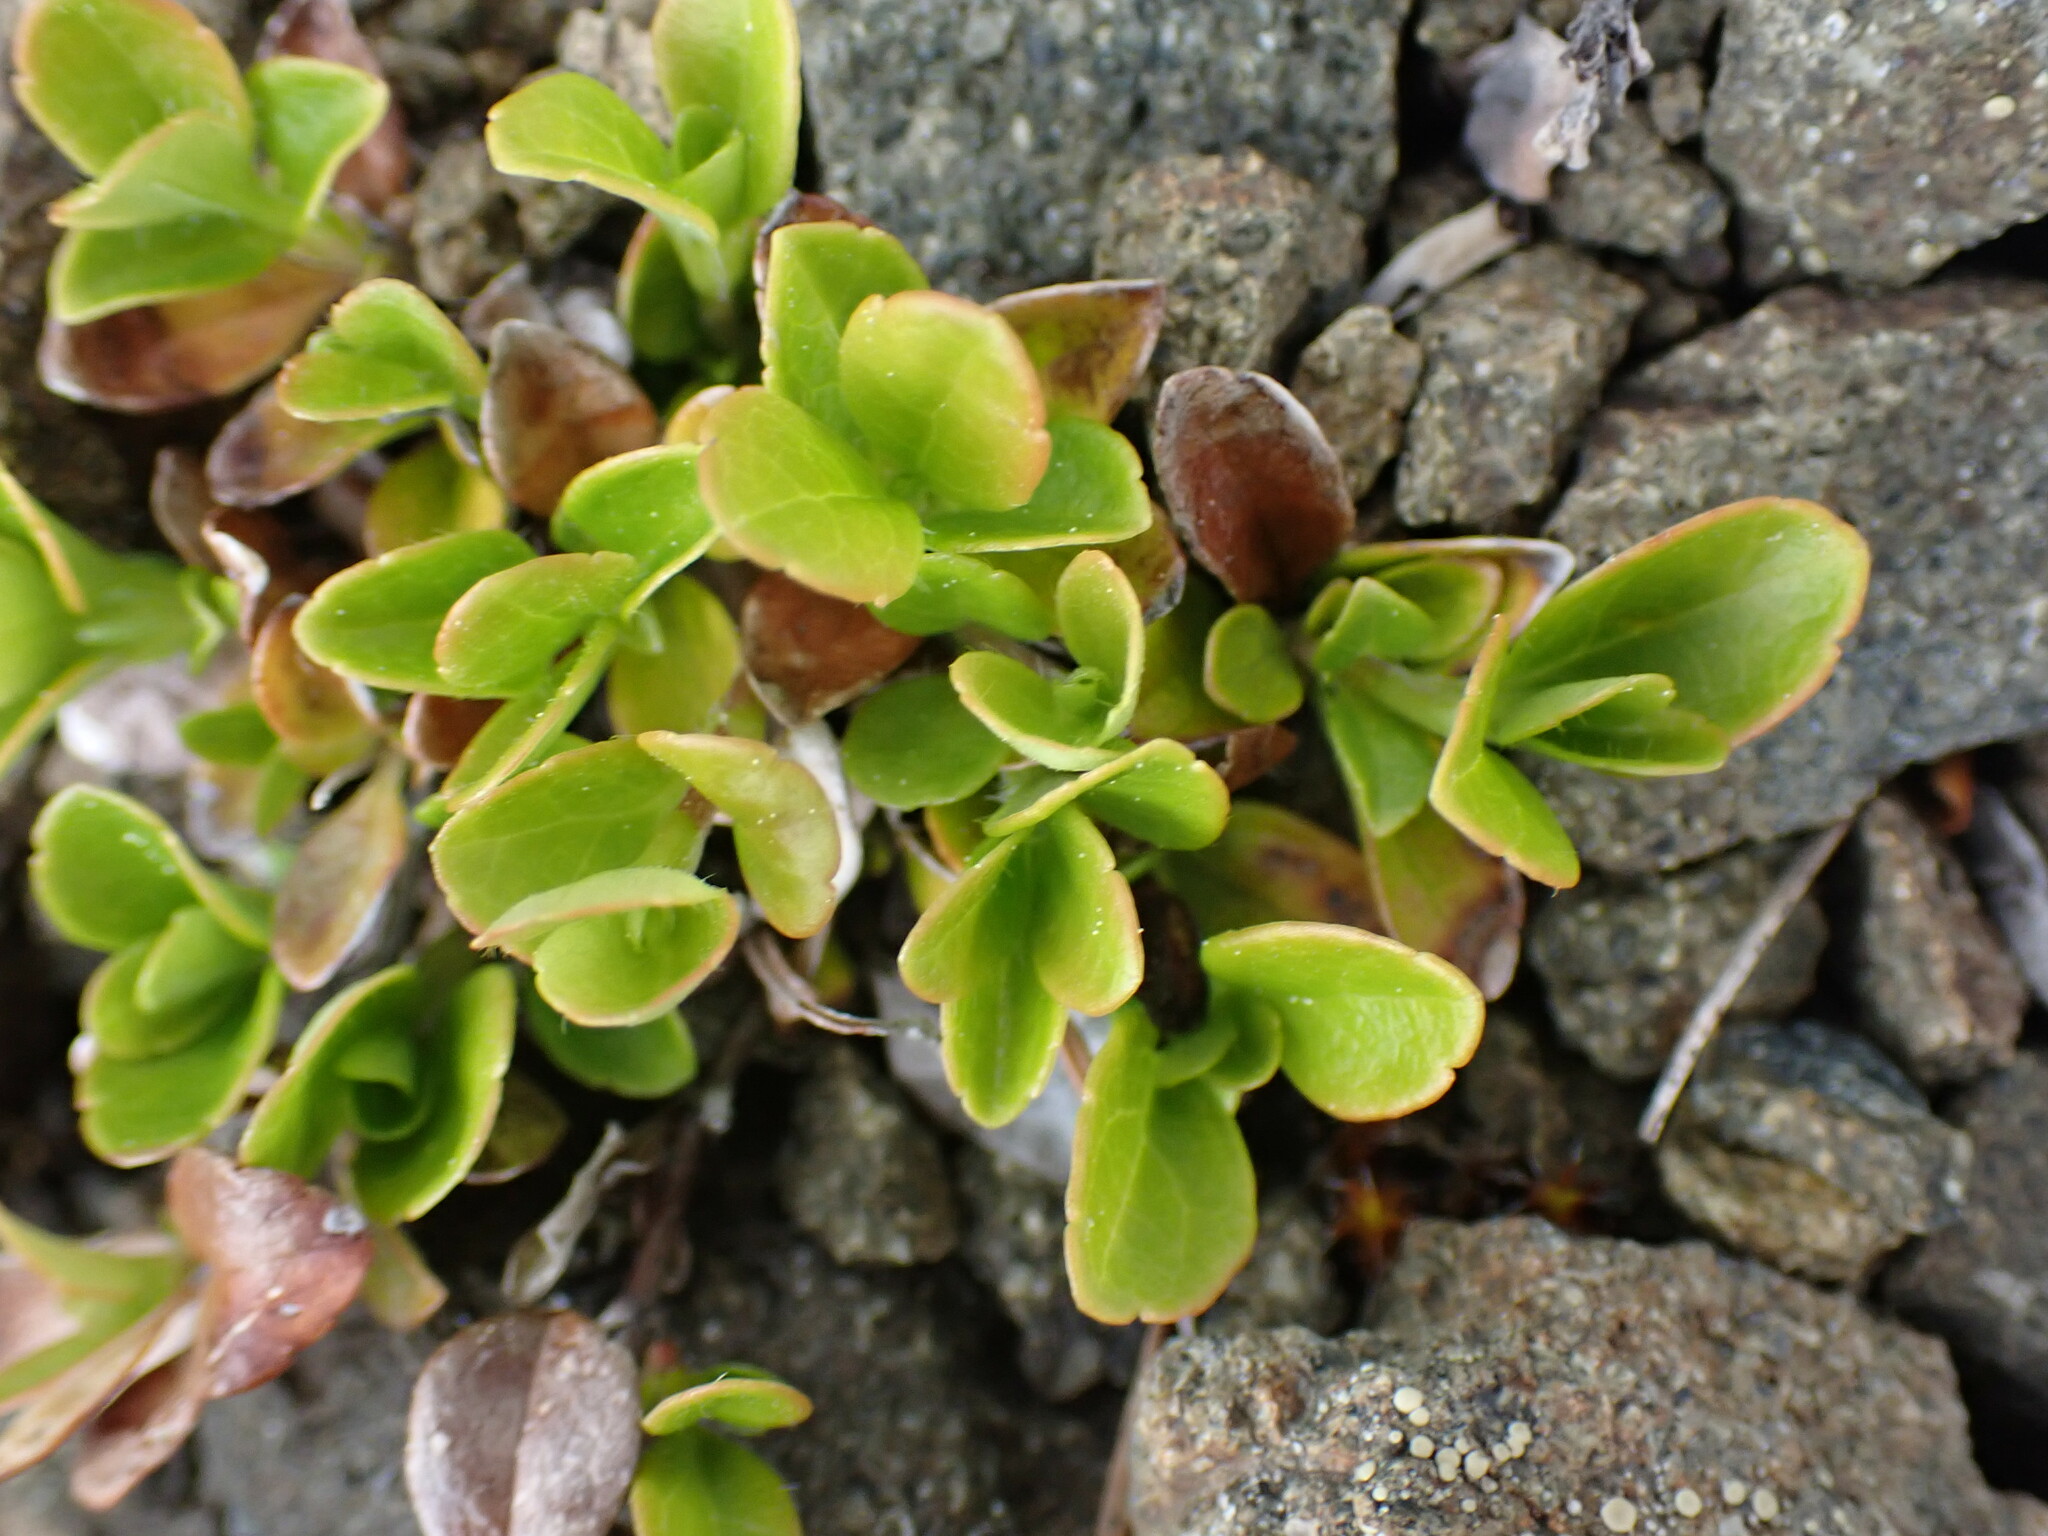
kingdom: Plantae
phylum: Tracheophyta
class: Magnoliopsida
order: Lamiales
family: Plantaginaceae
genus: Penstemon
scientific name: Penstemon davidsonii
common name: Davidson's penstemon
